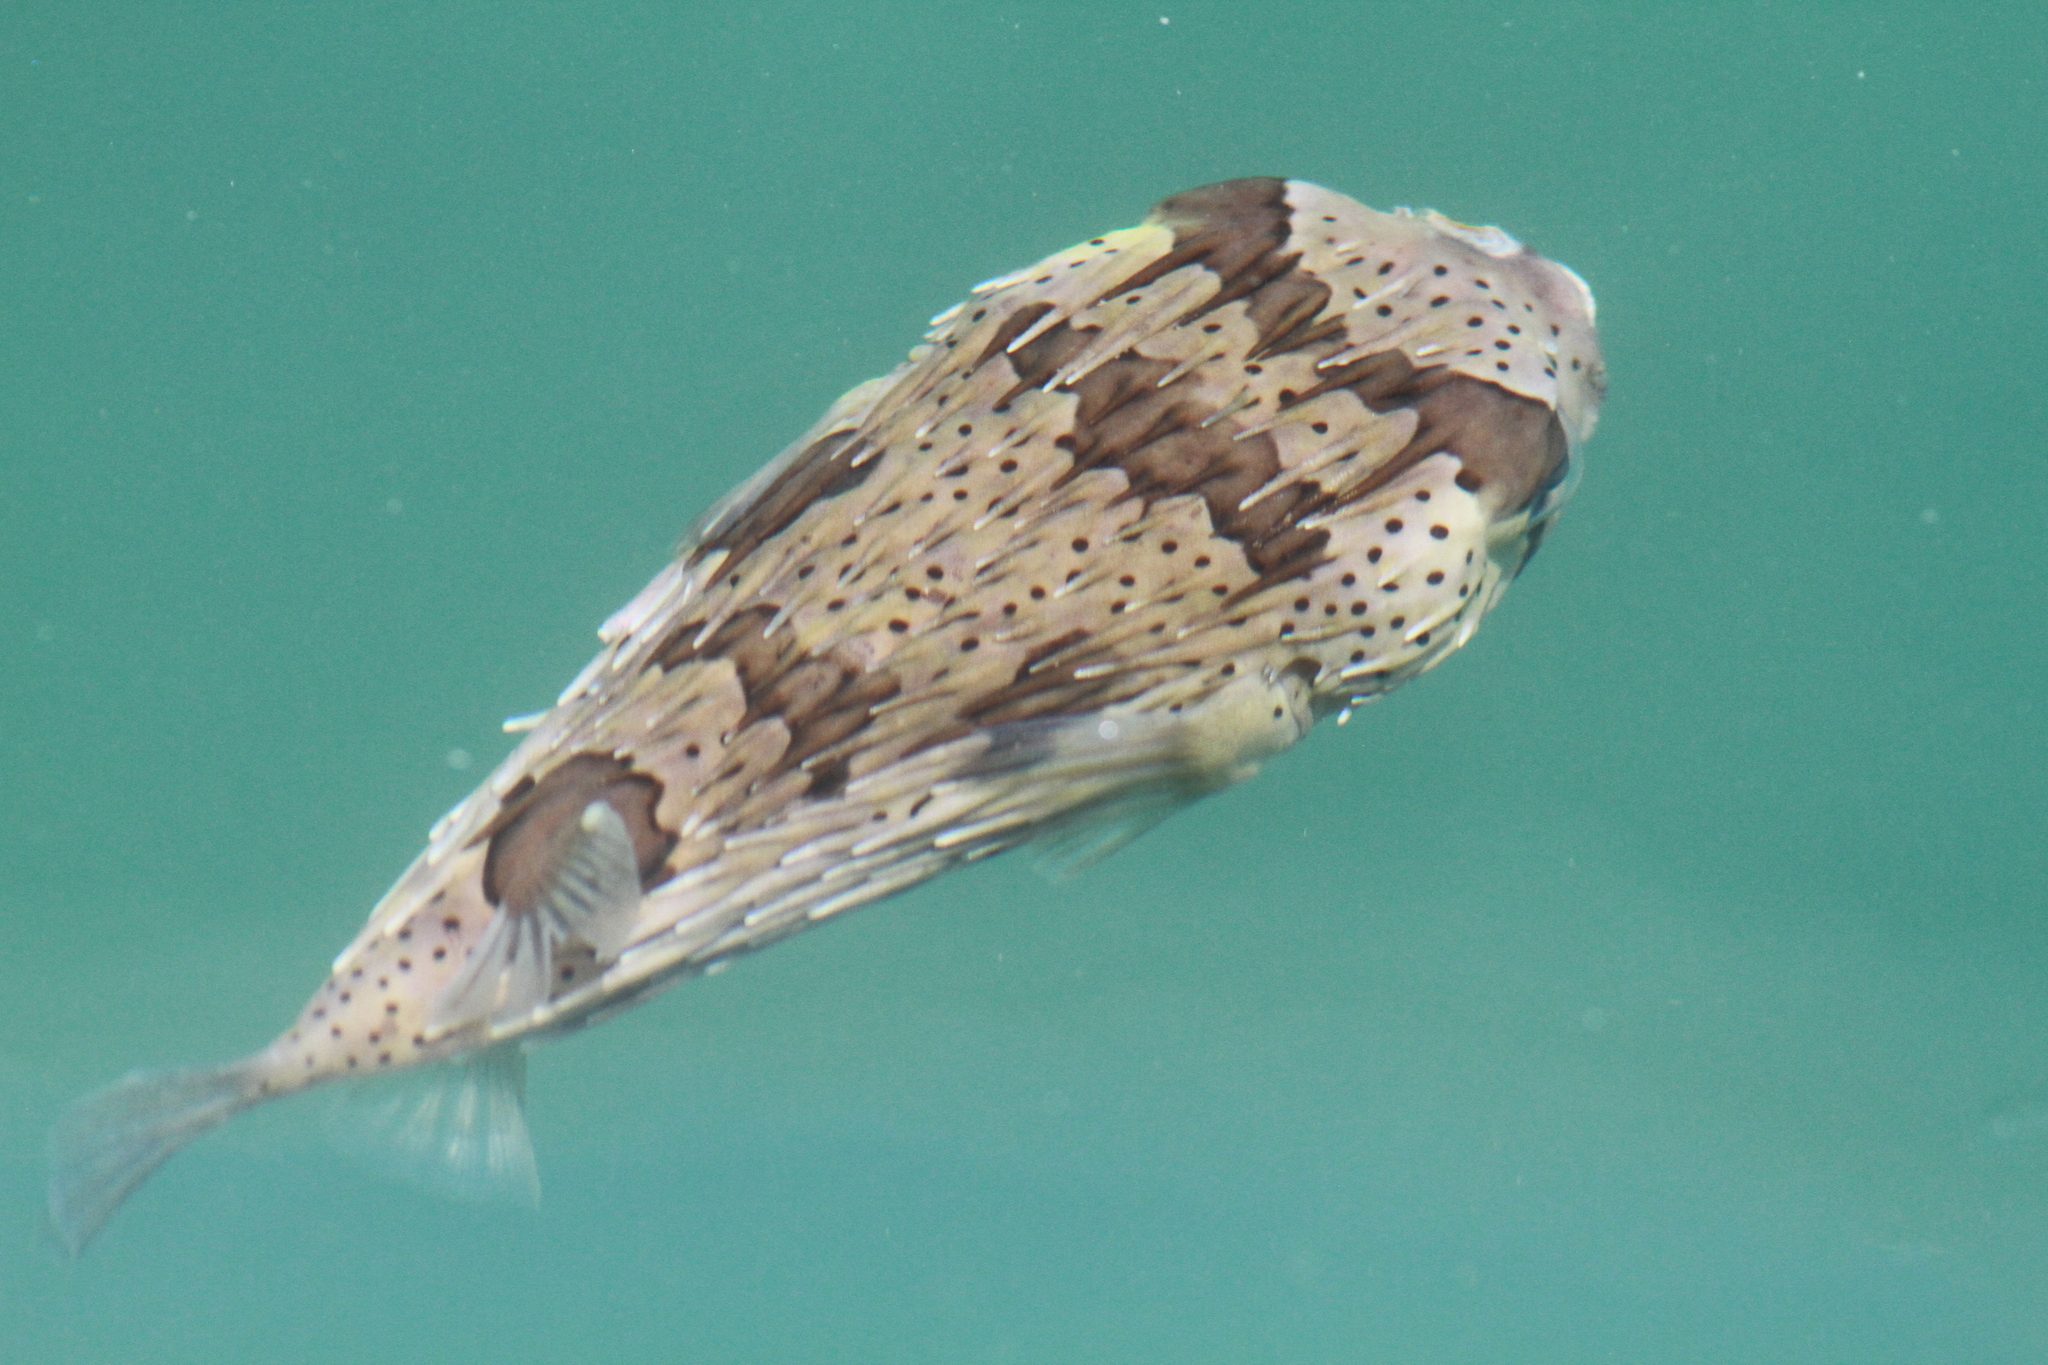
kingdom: Animalia
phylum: Chordata
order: Tetraodontiformes
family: Diodontidae
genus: Diodon
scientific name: Diodon holocanthus
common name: Balloonfish
